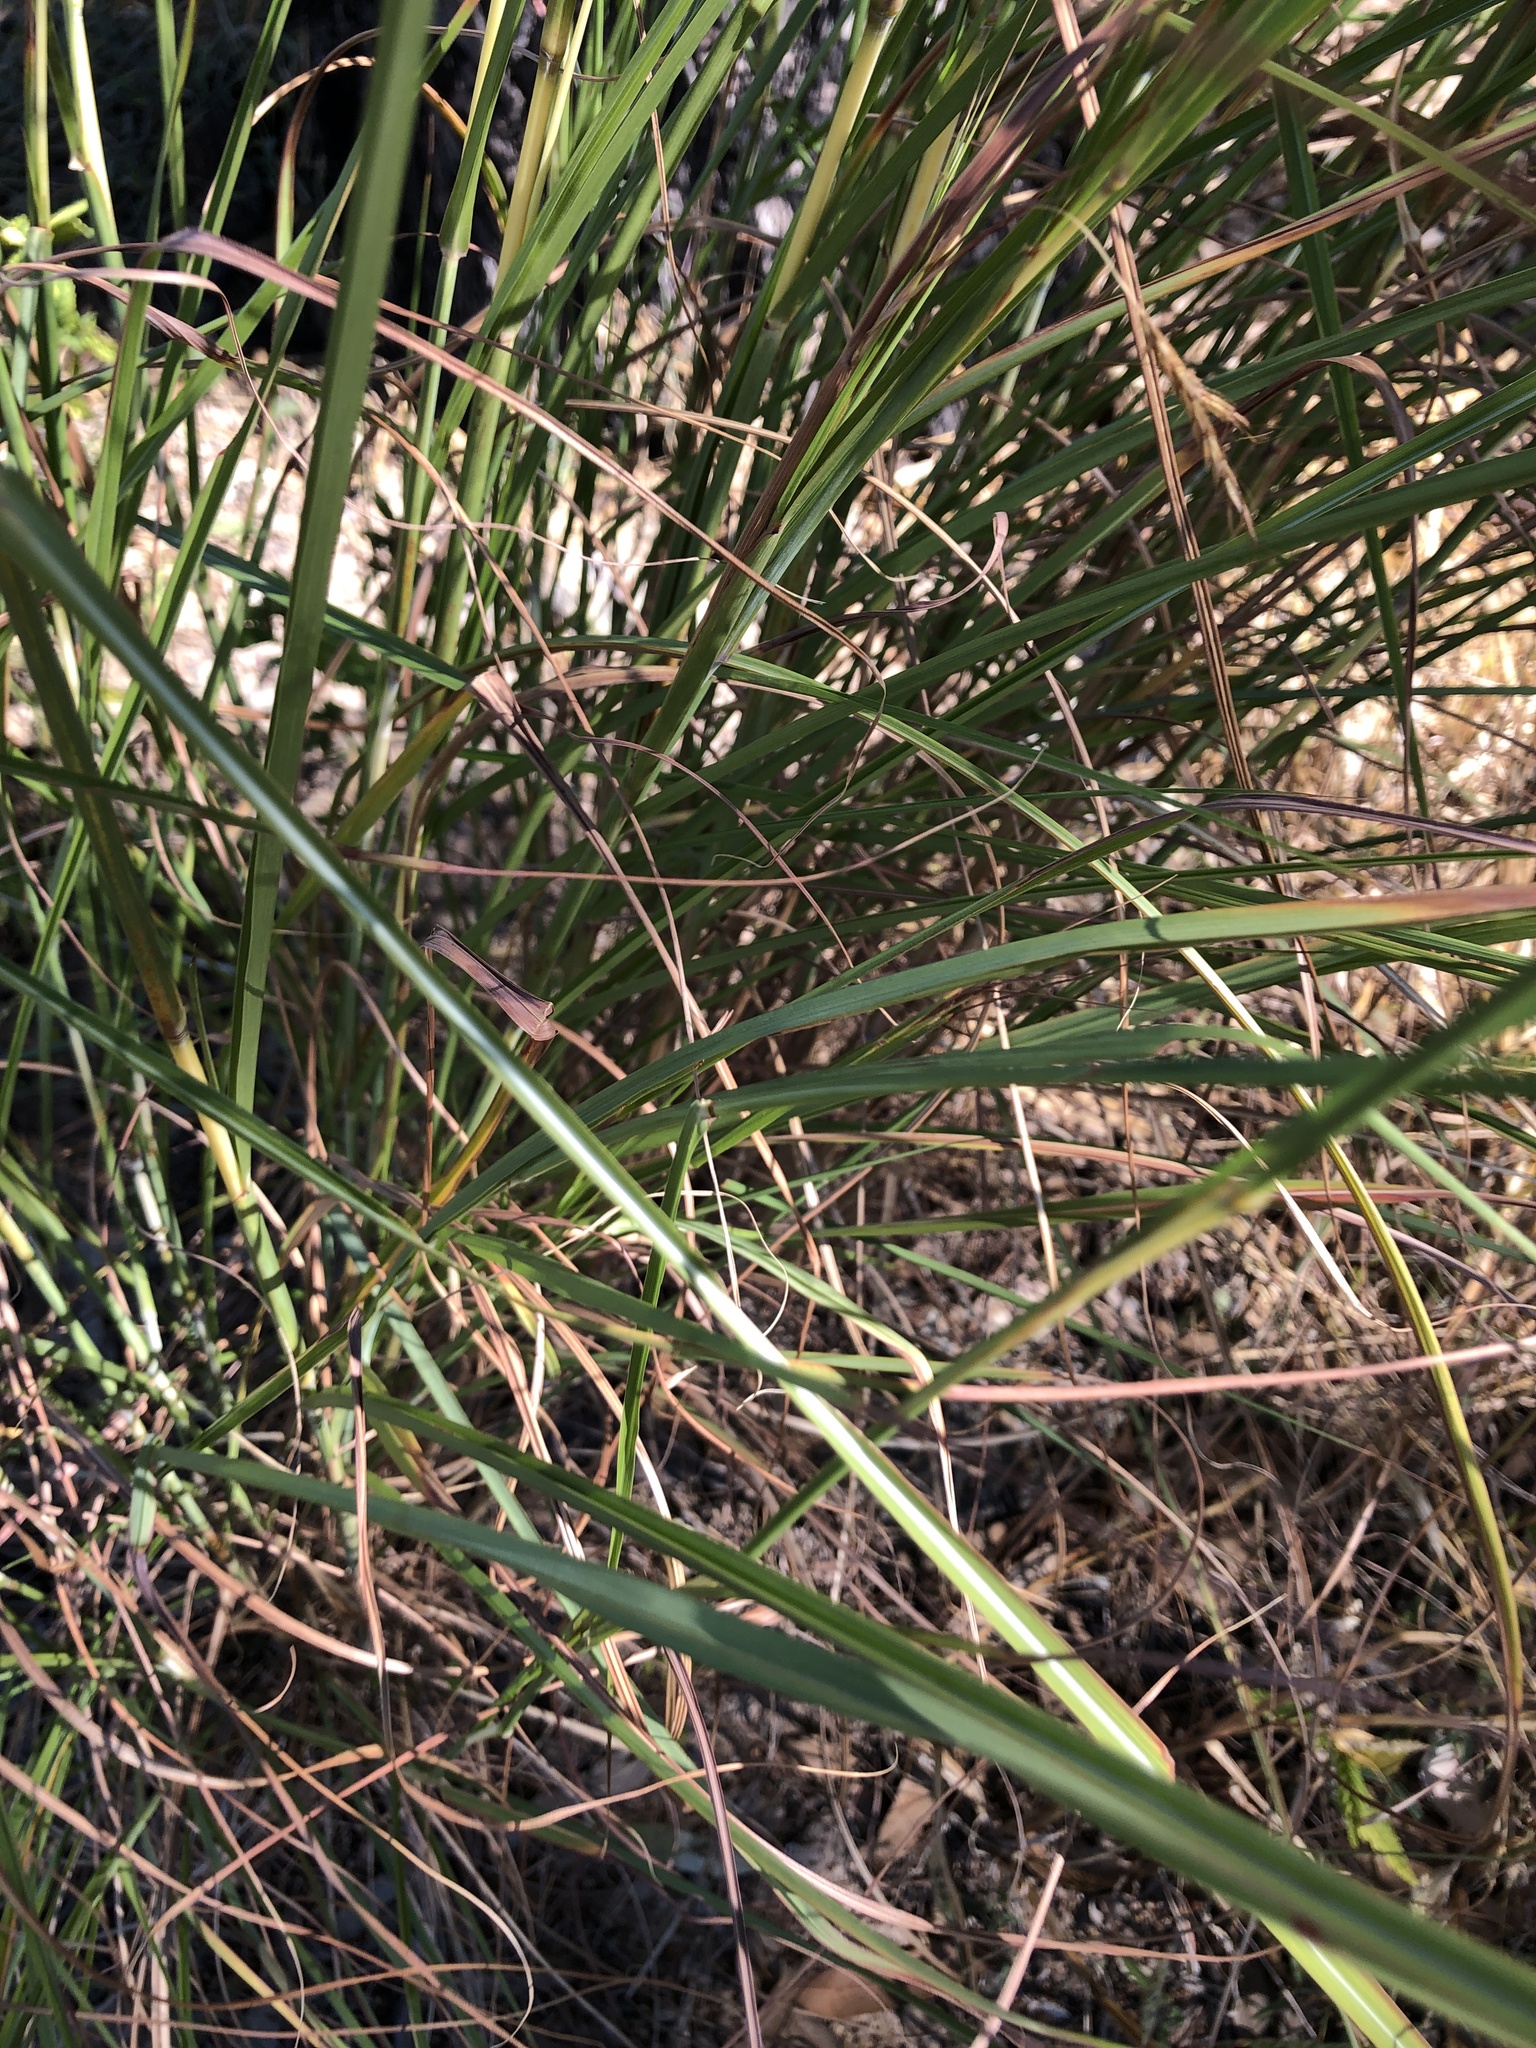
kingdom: Plantae
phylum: Tracheophyta
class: Liliopsida
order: Poales
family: Poaceae
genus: Hyparrhenia
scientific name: Hyparrhenia hirta
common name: Thatching grass
